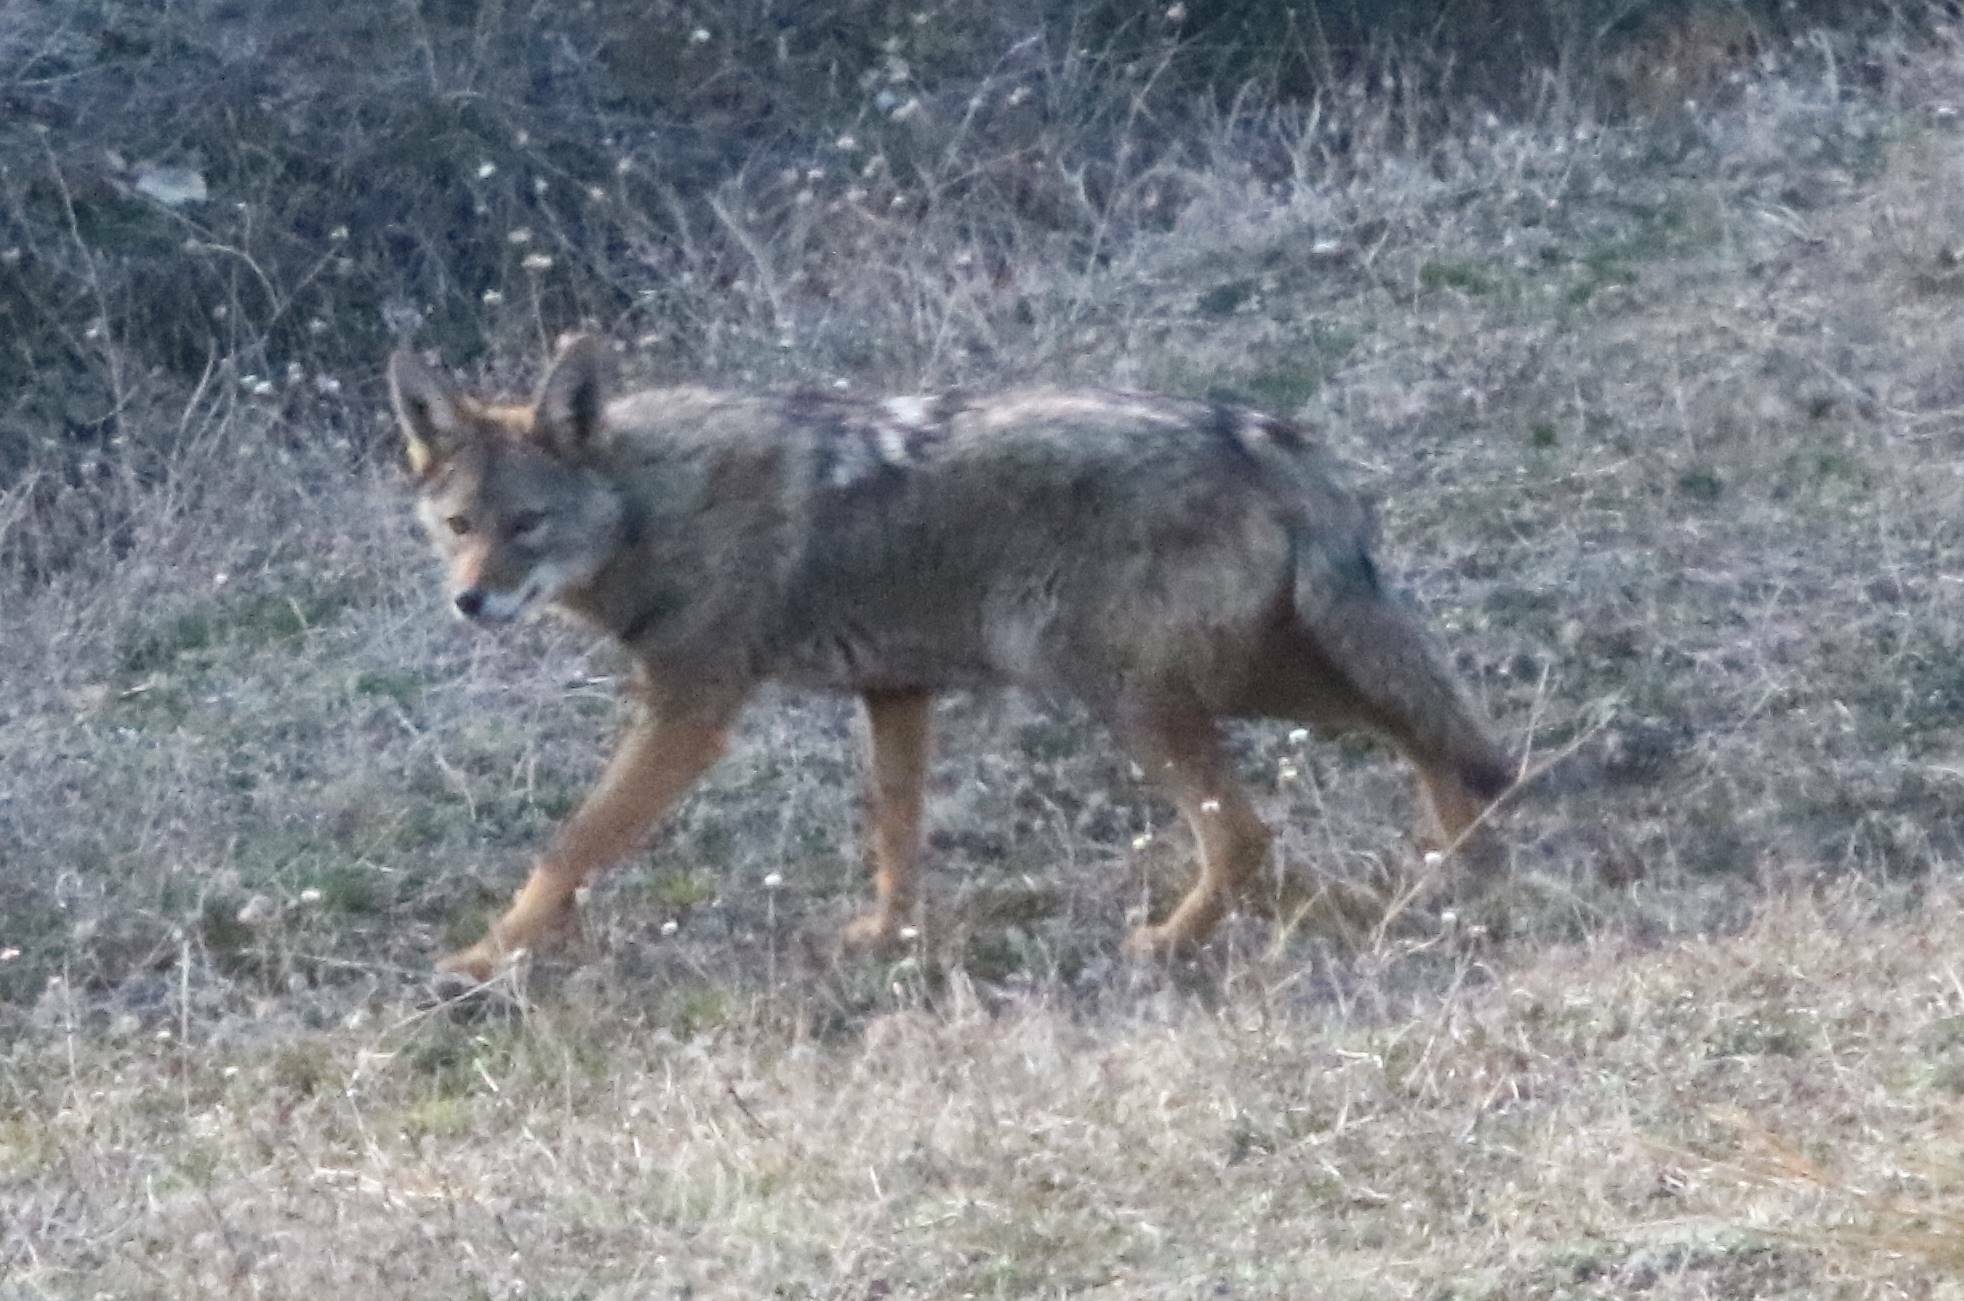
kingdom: Animalia
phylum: Chordata
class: Mammalia
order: Carnivora
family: Canidae
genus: Canis
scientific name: Canis lupaster
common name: African golden wolf
